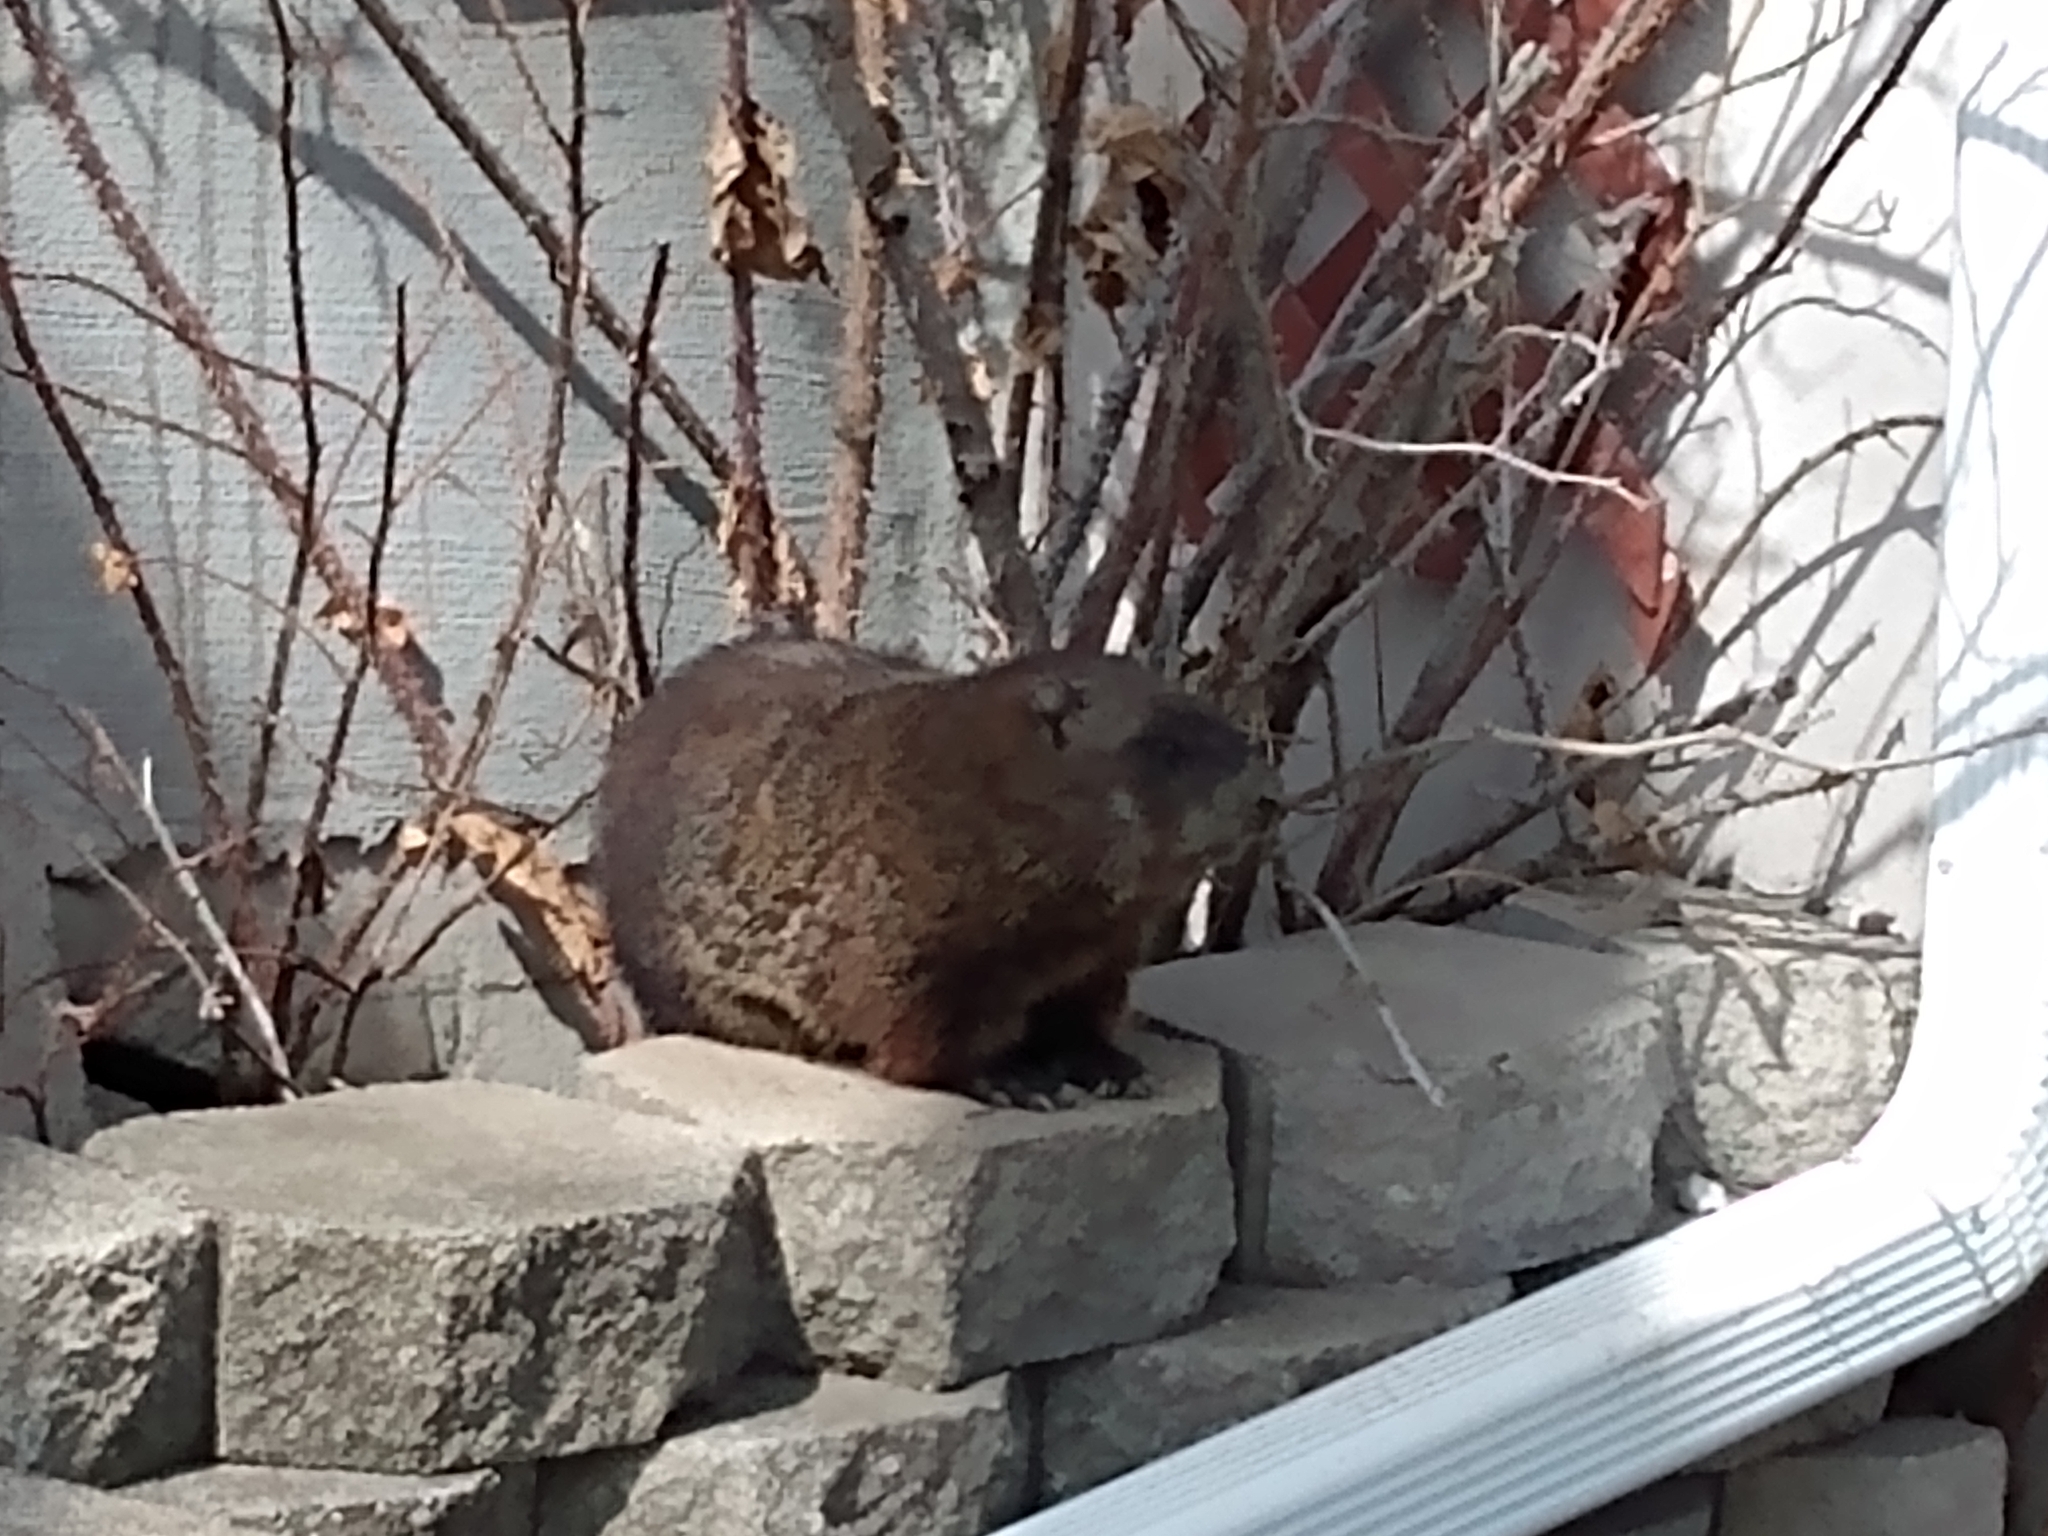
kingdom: Animalia
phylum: Chordata
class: Mammalia
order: Rodentia
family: Sciuridae
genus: Marmota
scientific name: Marmota monax
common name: Groundhog
